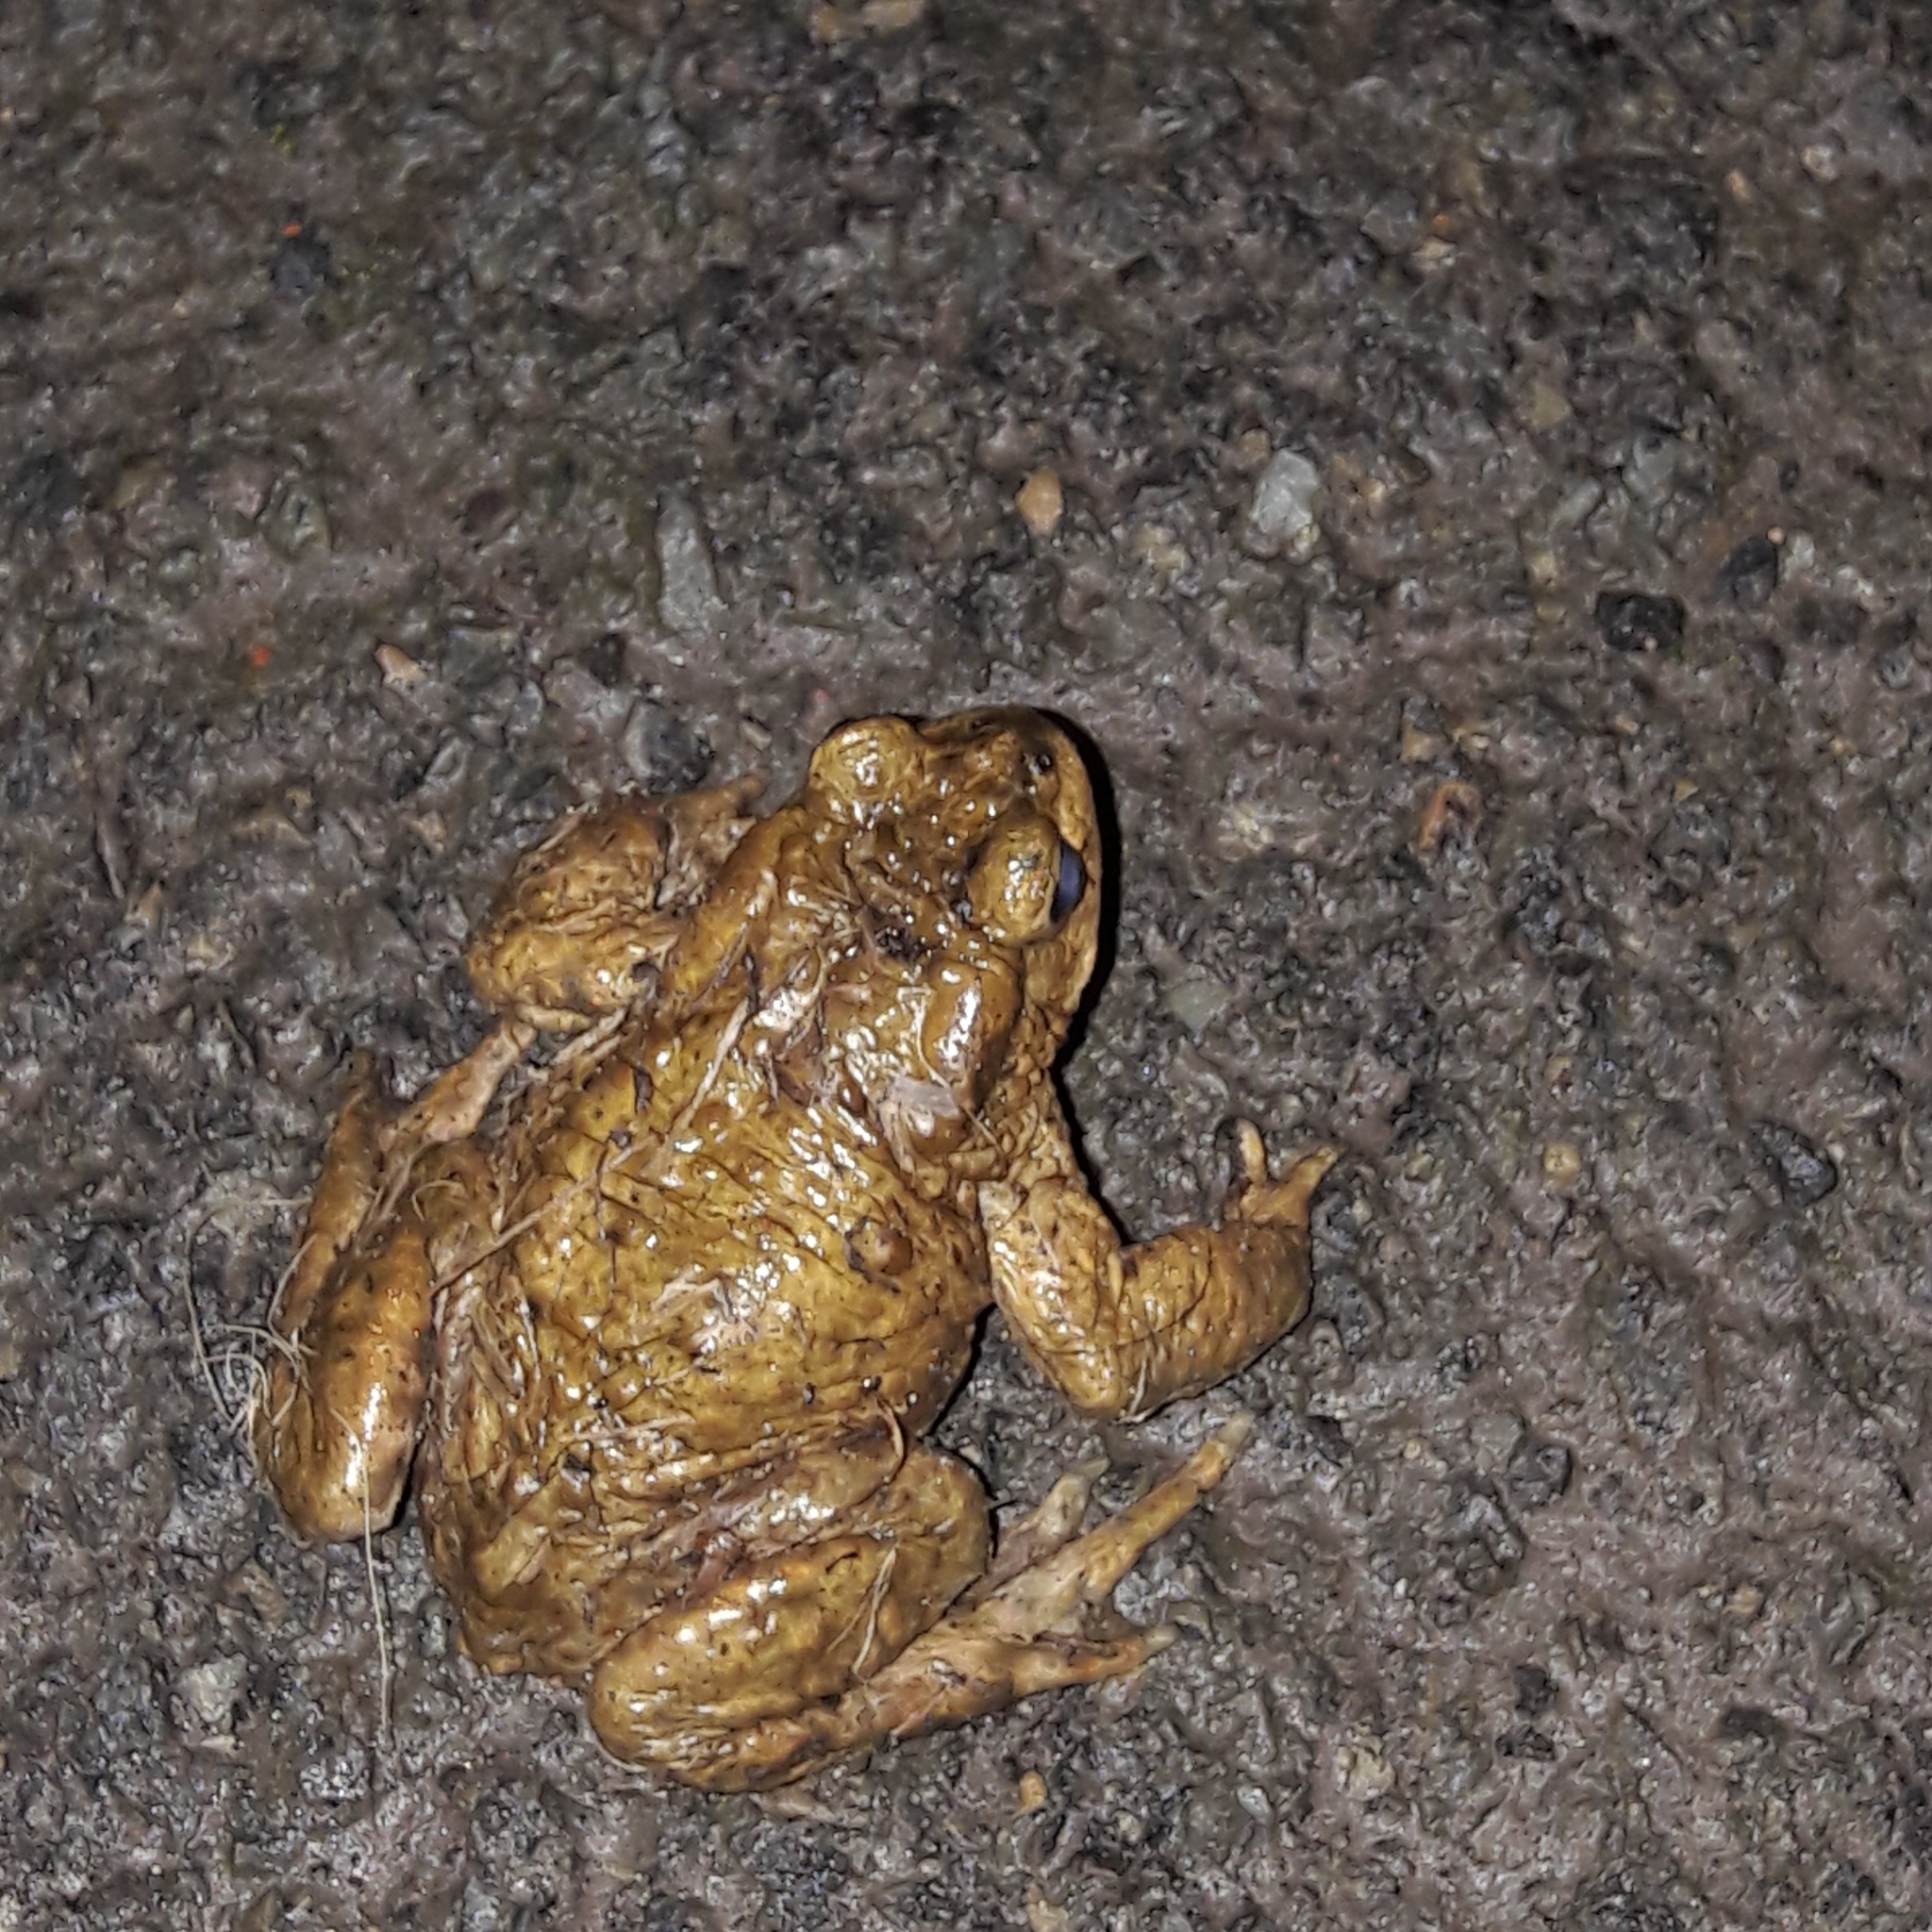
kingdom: Animalia
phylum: Chordata
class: Amphibia
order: Anura
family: Bufonidae
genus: Bufo
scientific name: Bufo bufo
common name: Common toad
